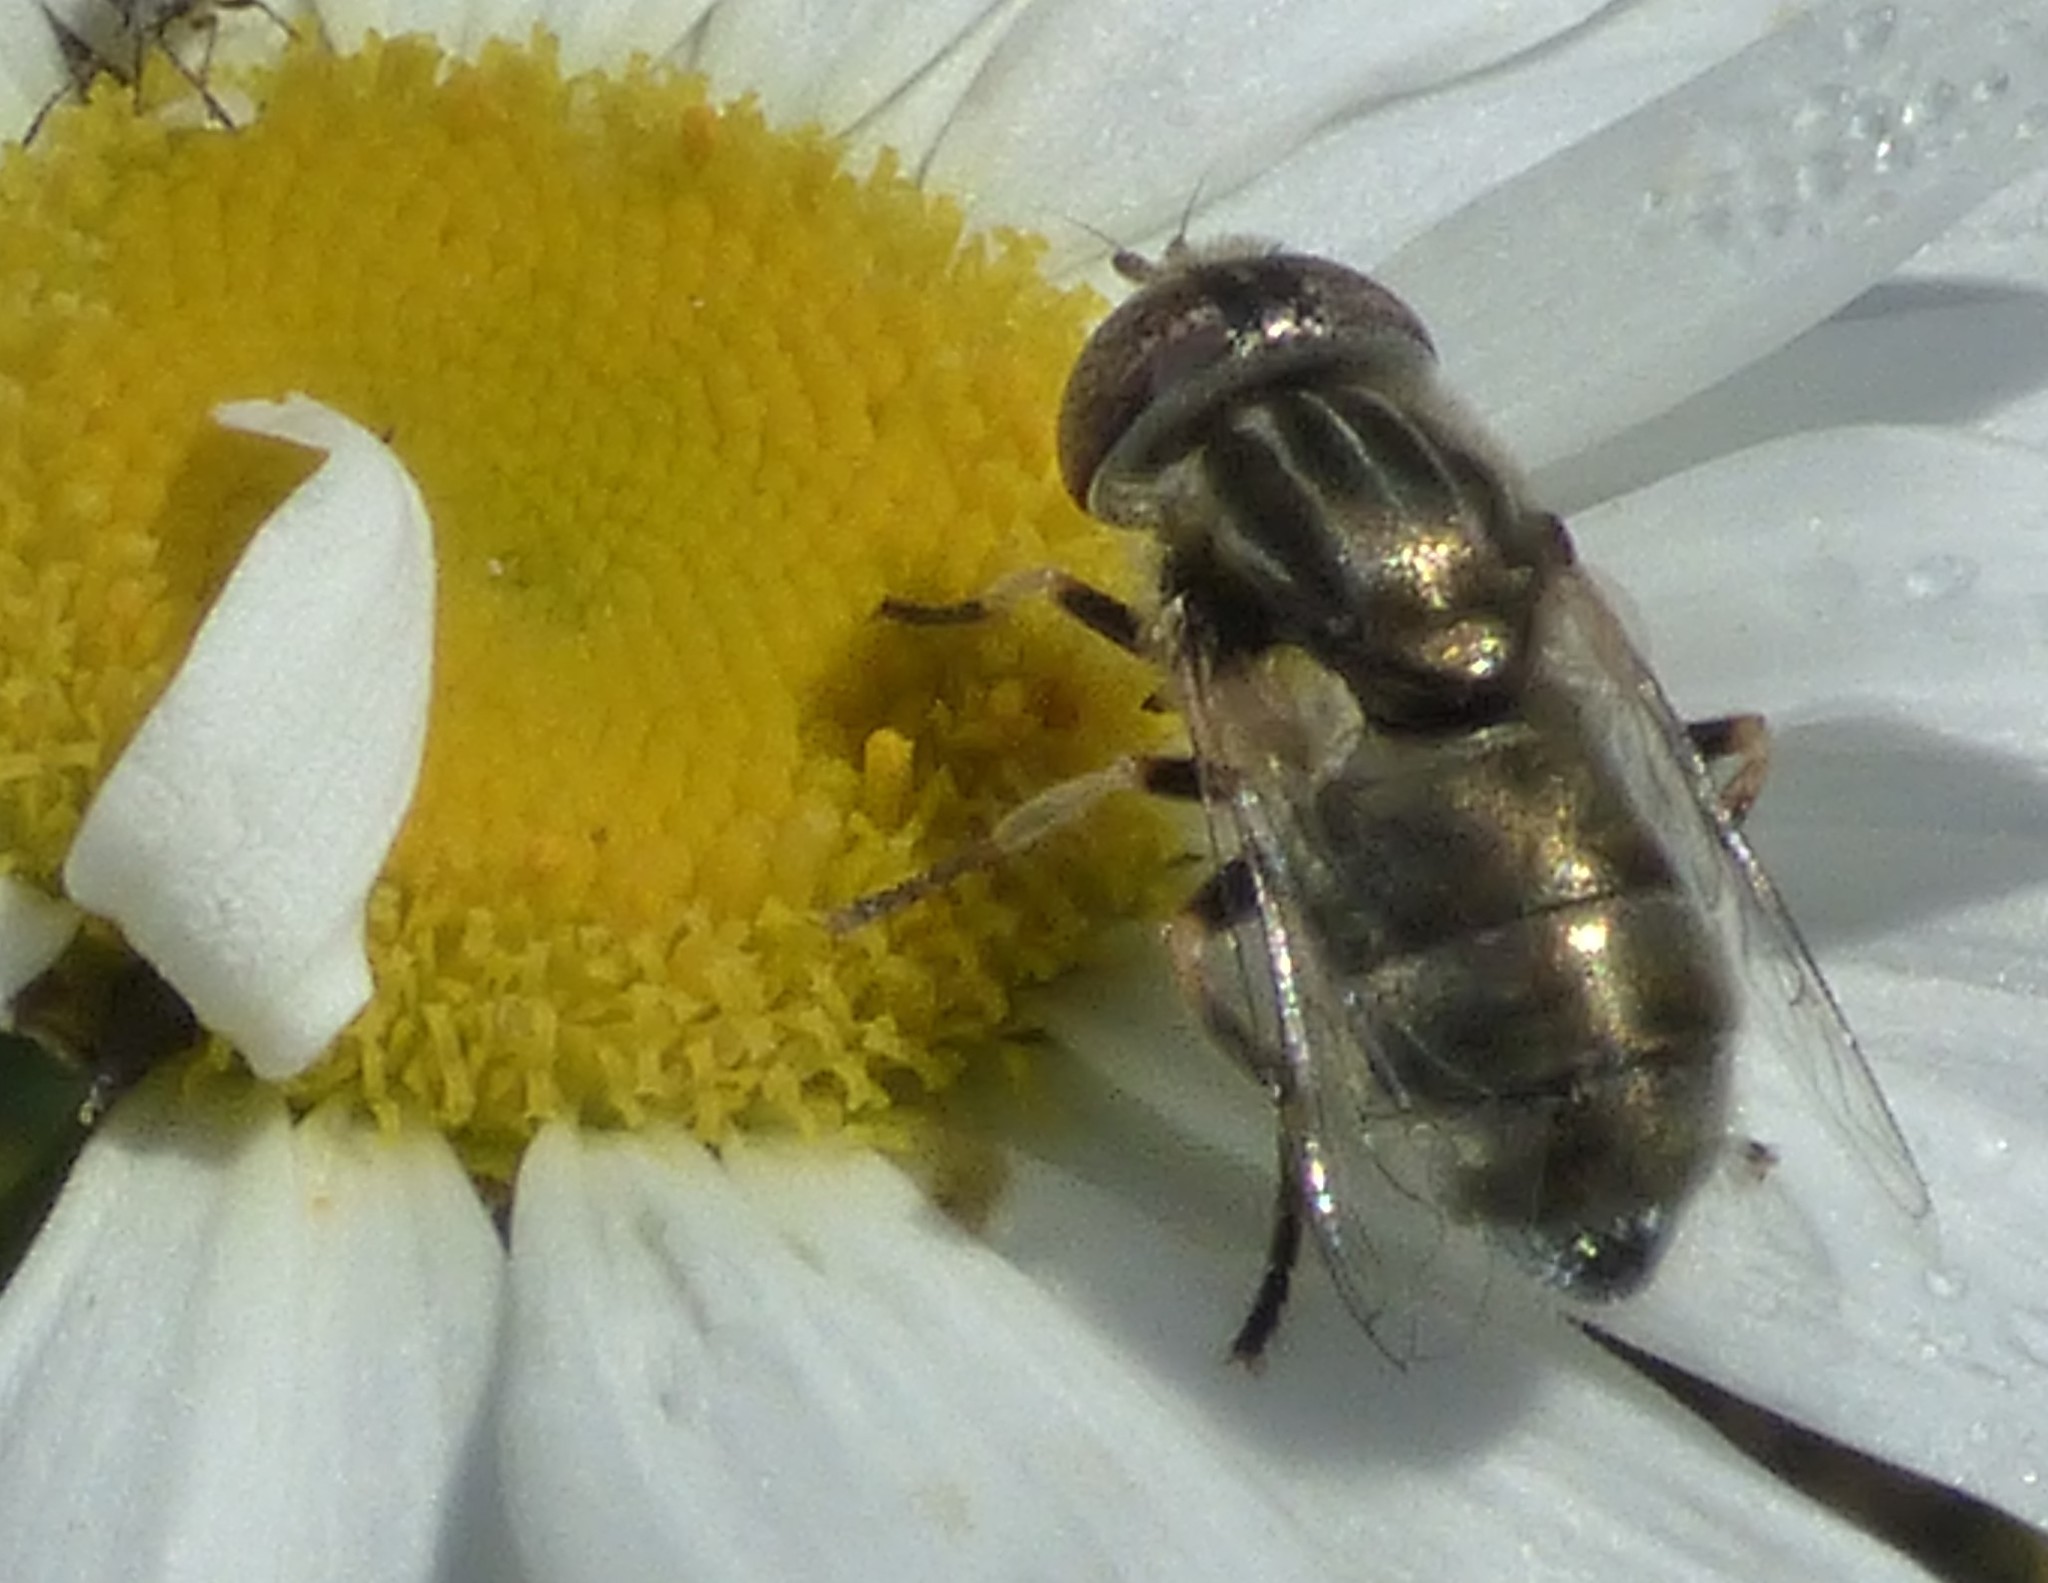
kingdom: Animalia
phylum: Arthropoda
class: Insecta
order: Diptera
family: Syrphidae
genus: Eristalinus
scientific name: Eristalinus aeneus
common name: Syrphid fly
